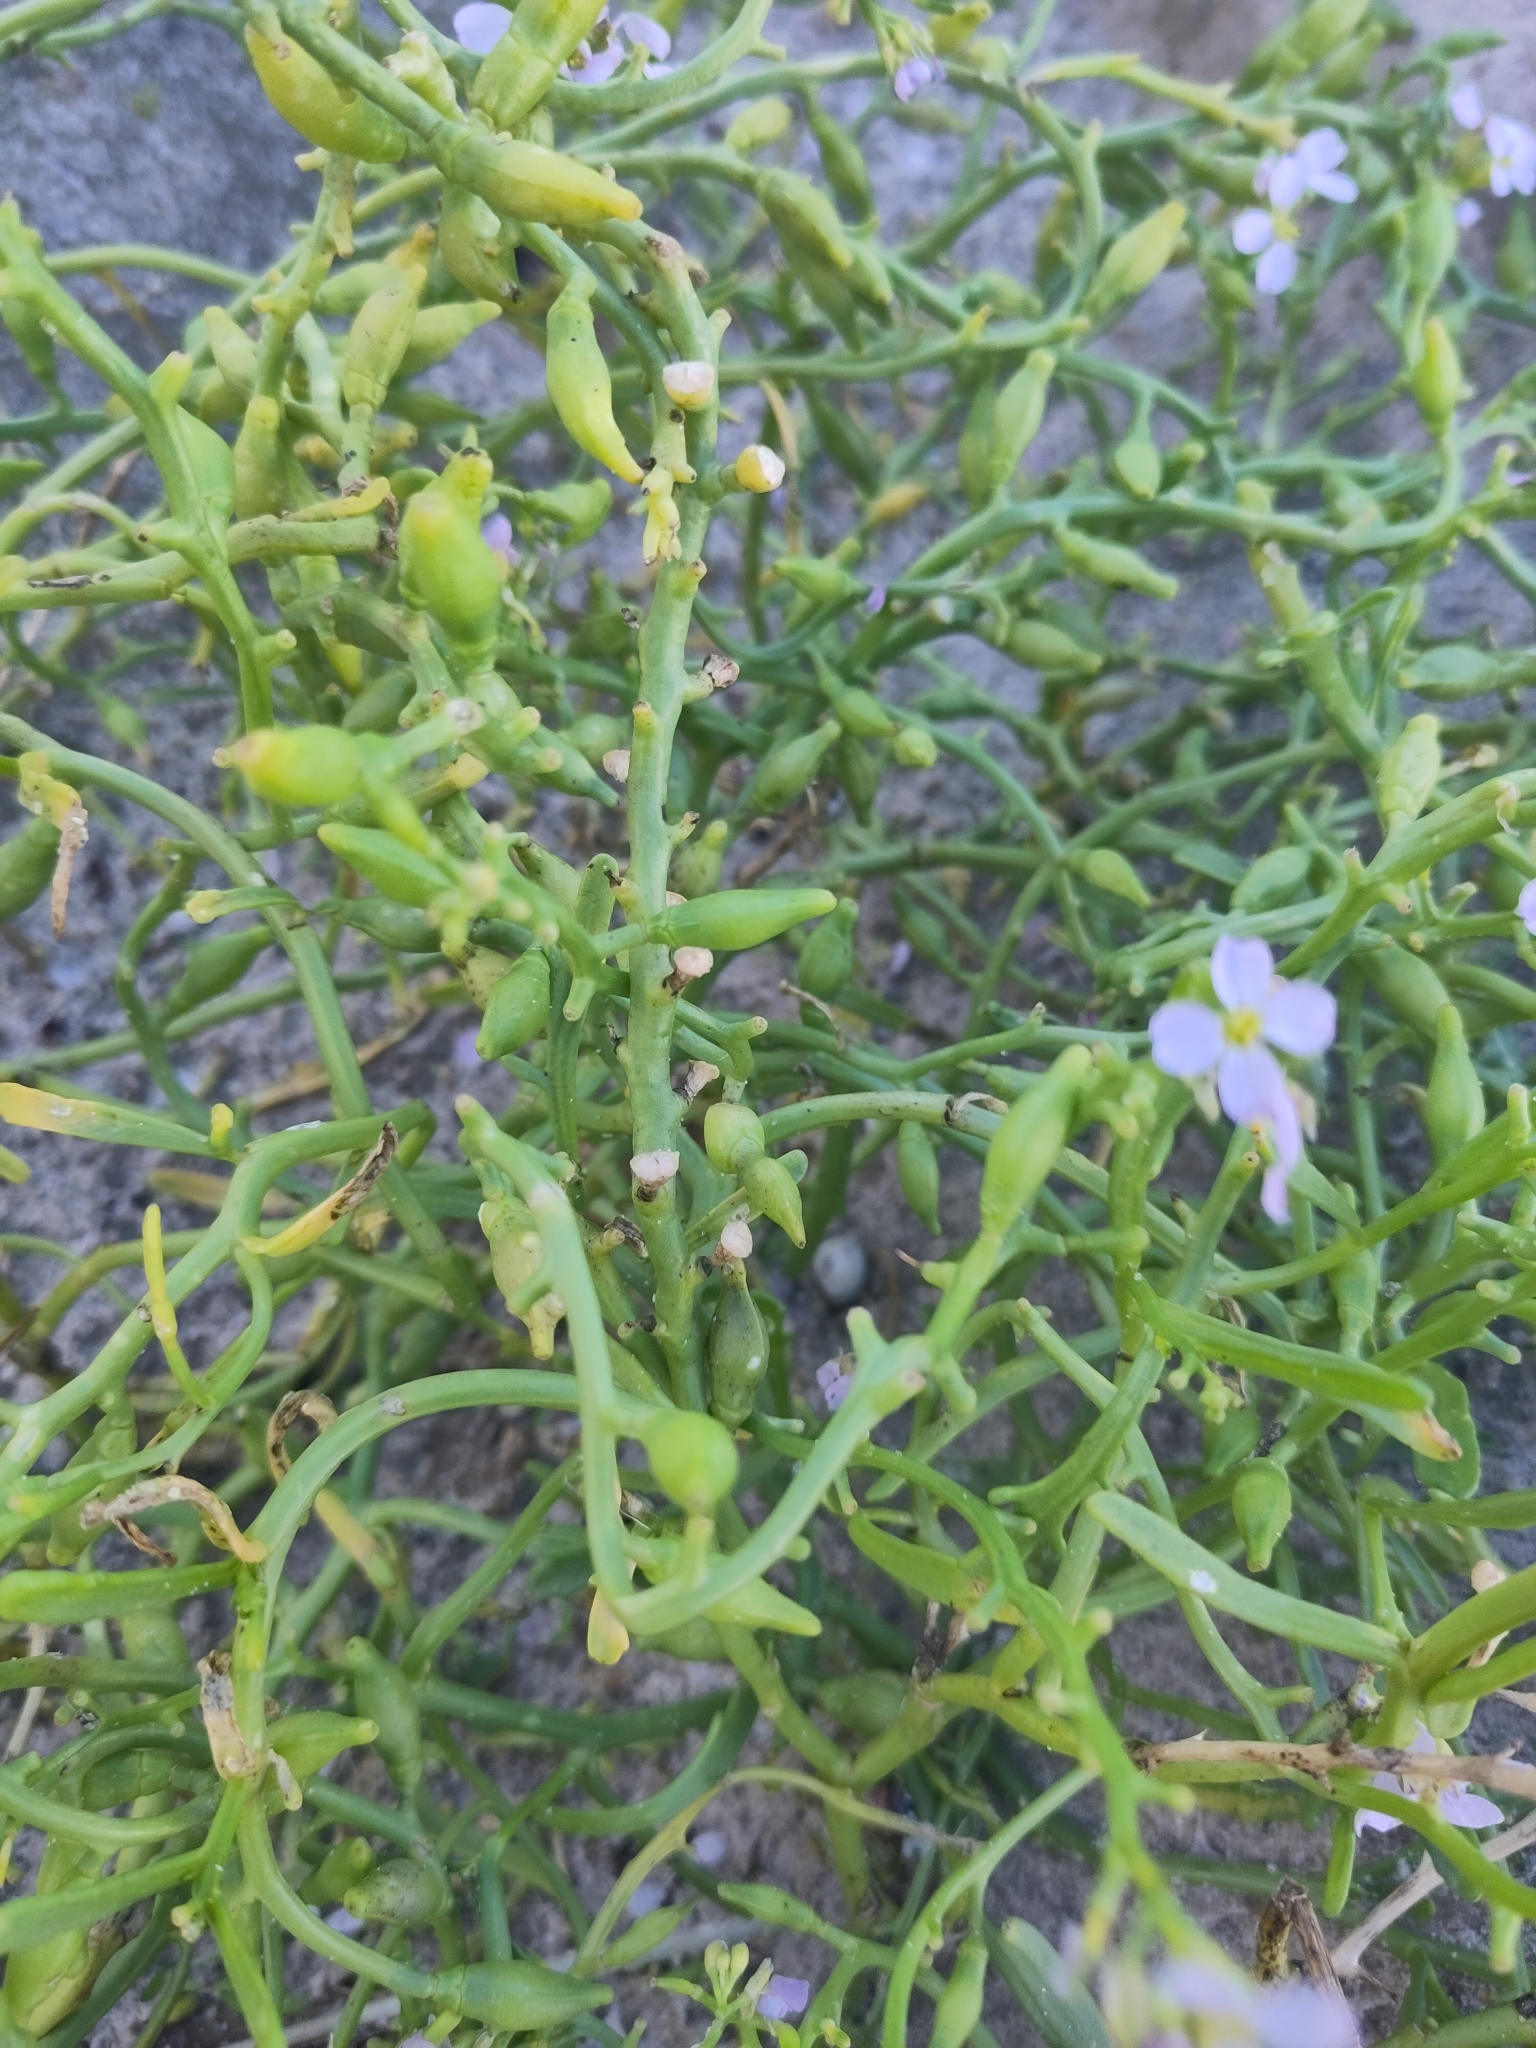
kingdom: Plantae
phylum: Tracheophyta
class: Magnoliopsida
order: Brassicales
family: Brassicaceae
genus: Cakile
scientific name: Cakile maritima
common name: Sea rocket
